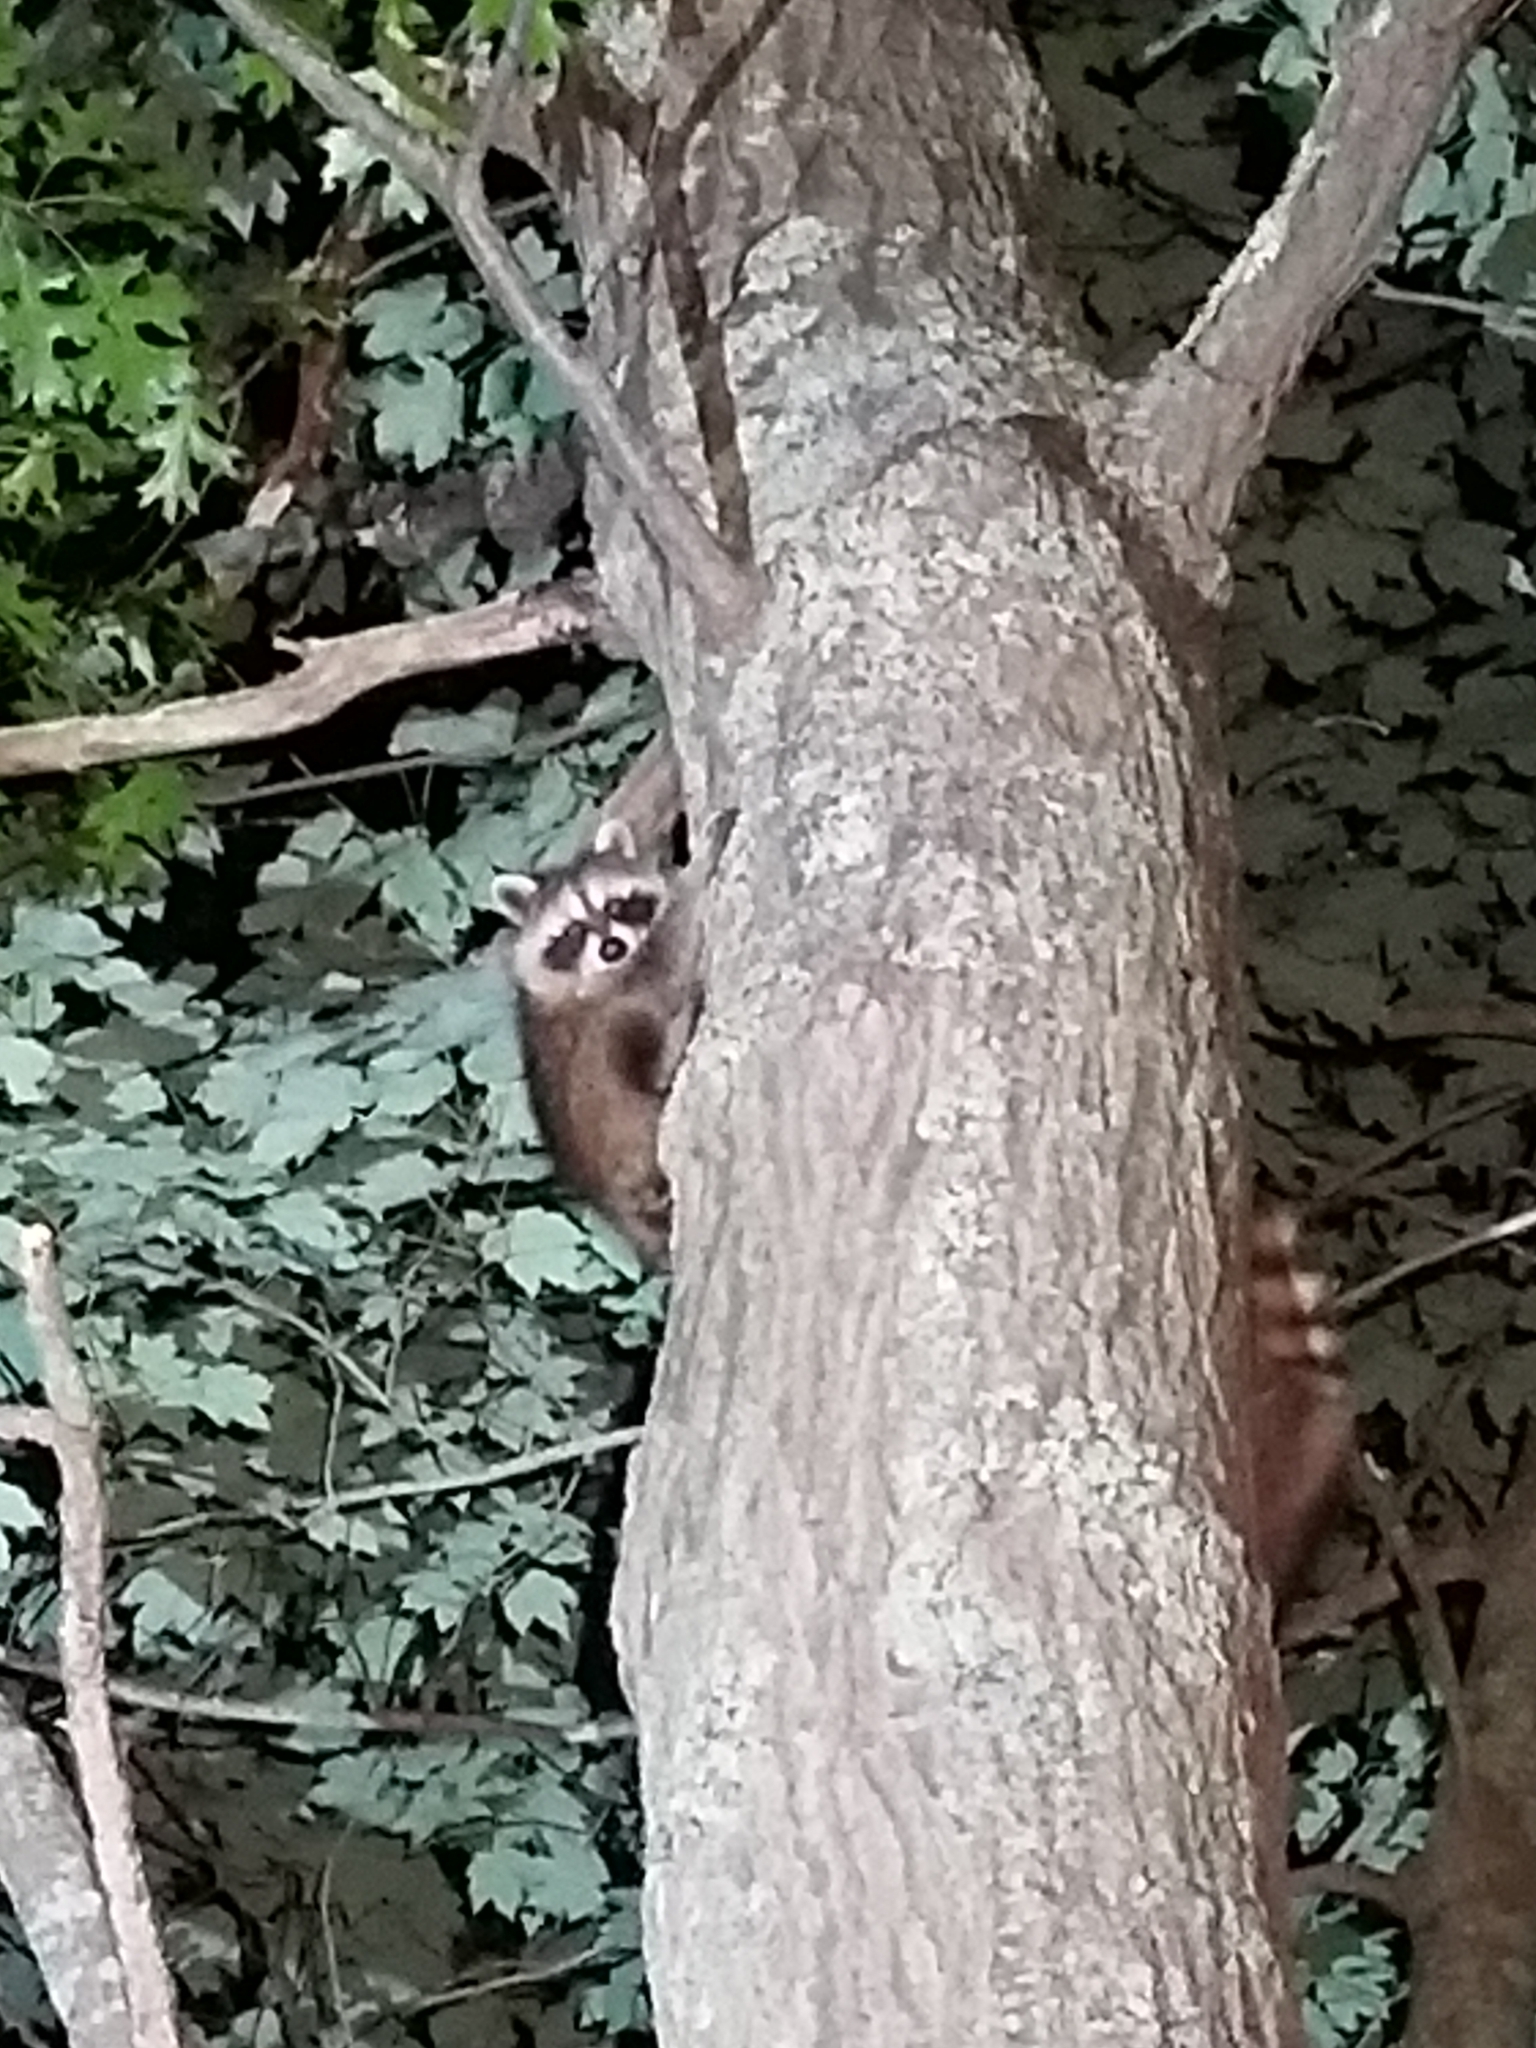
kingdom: Animalia
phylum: Chordata
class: Mammalia
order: Carnivora
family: Procyonidae
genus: Procyon
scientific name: Procyon lotor
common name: Raccoon
